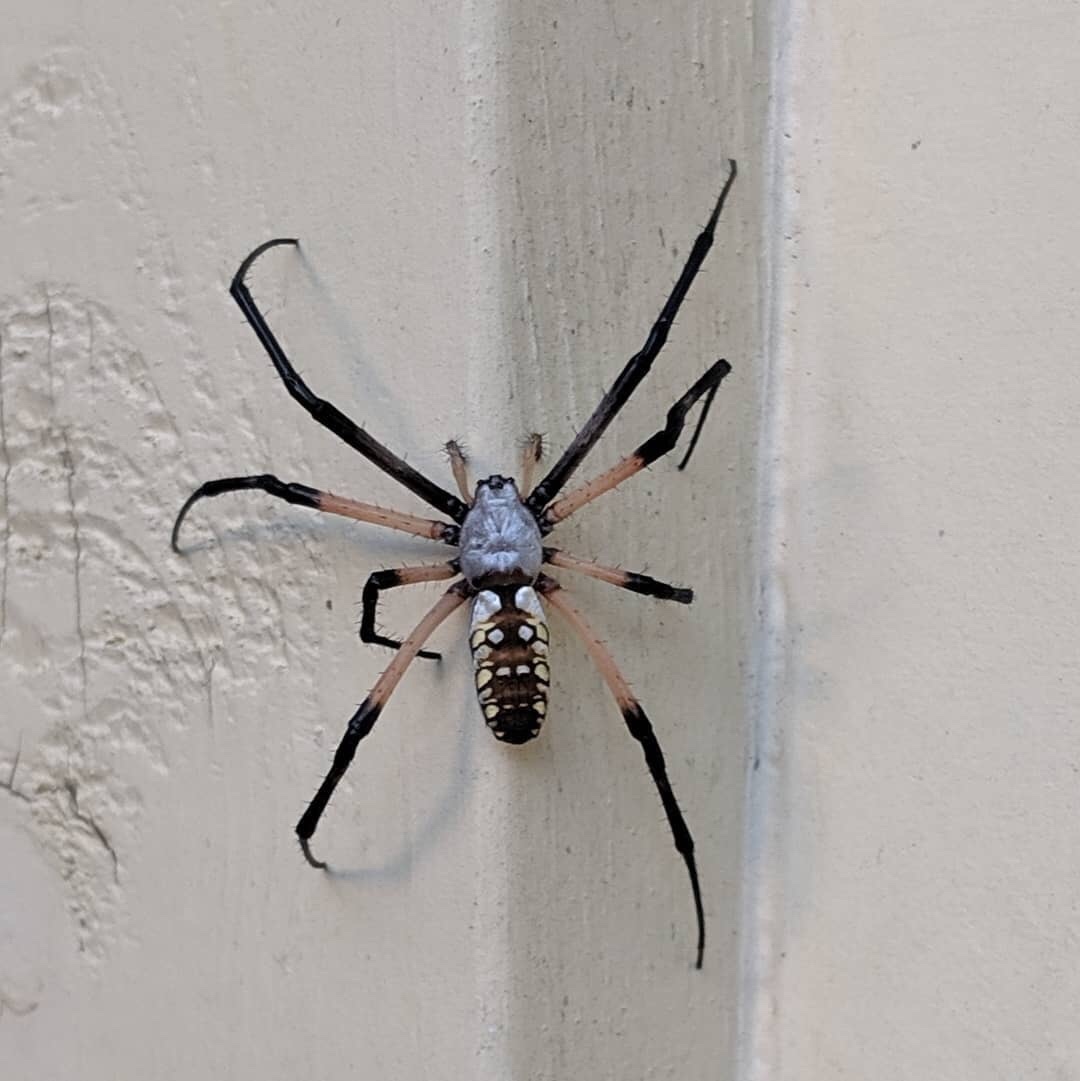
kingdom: Animalia
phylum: Arthropoda
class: Arachnida
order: Araneae
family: Araneidae
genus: Argiope
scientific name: Argiope aurantia
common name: Orb weavers
